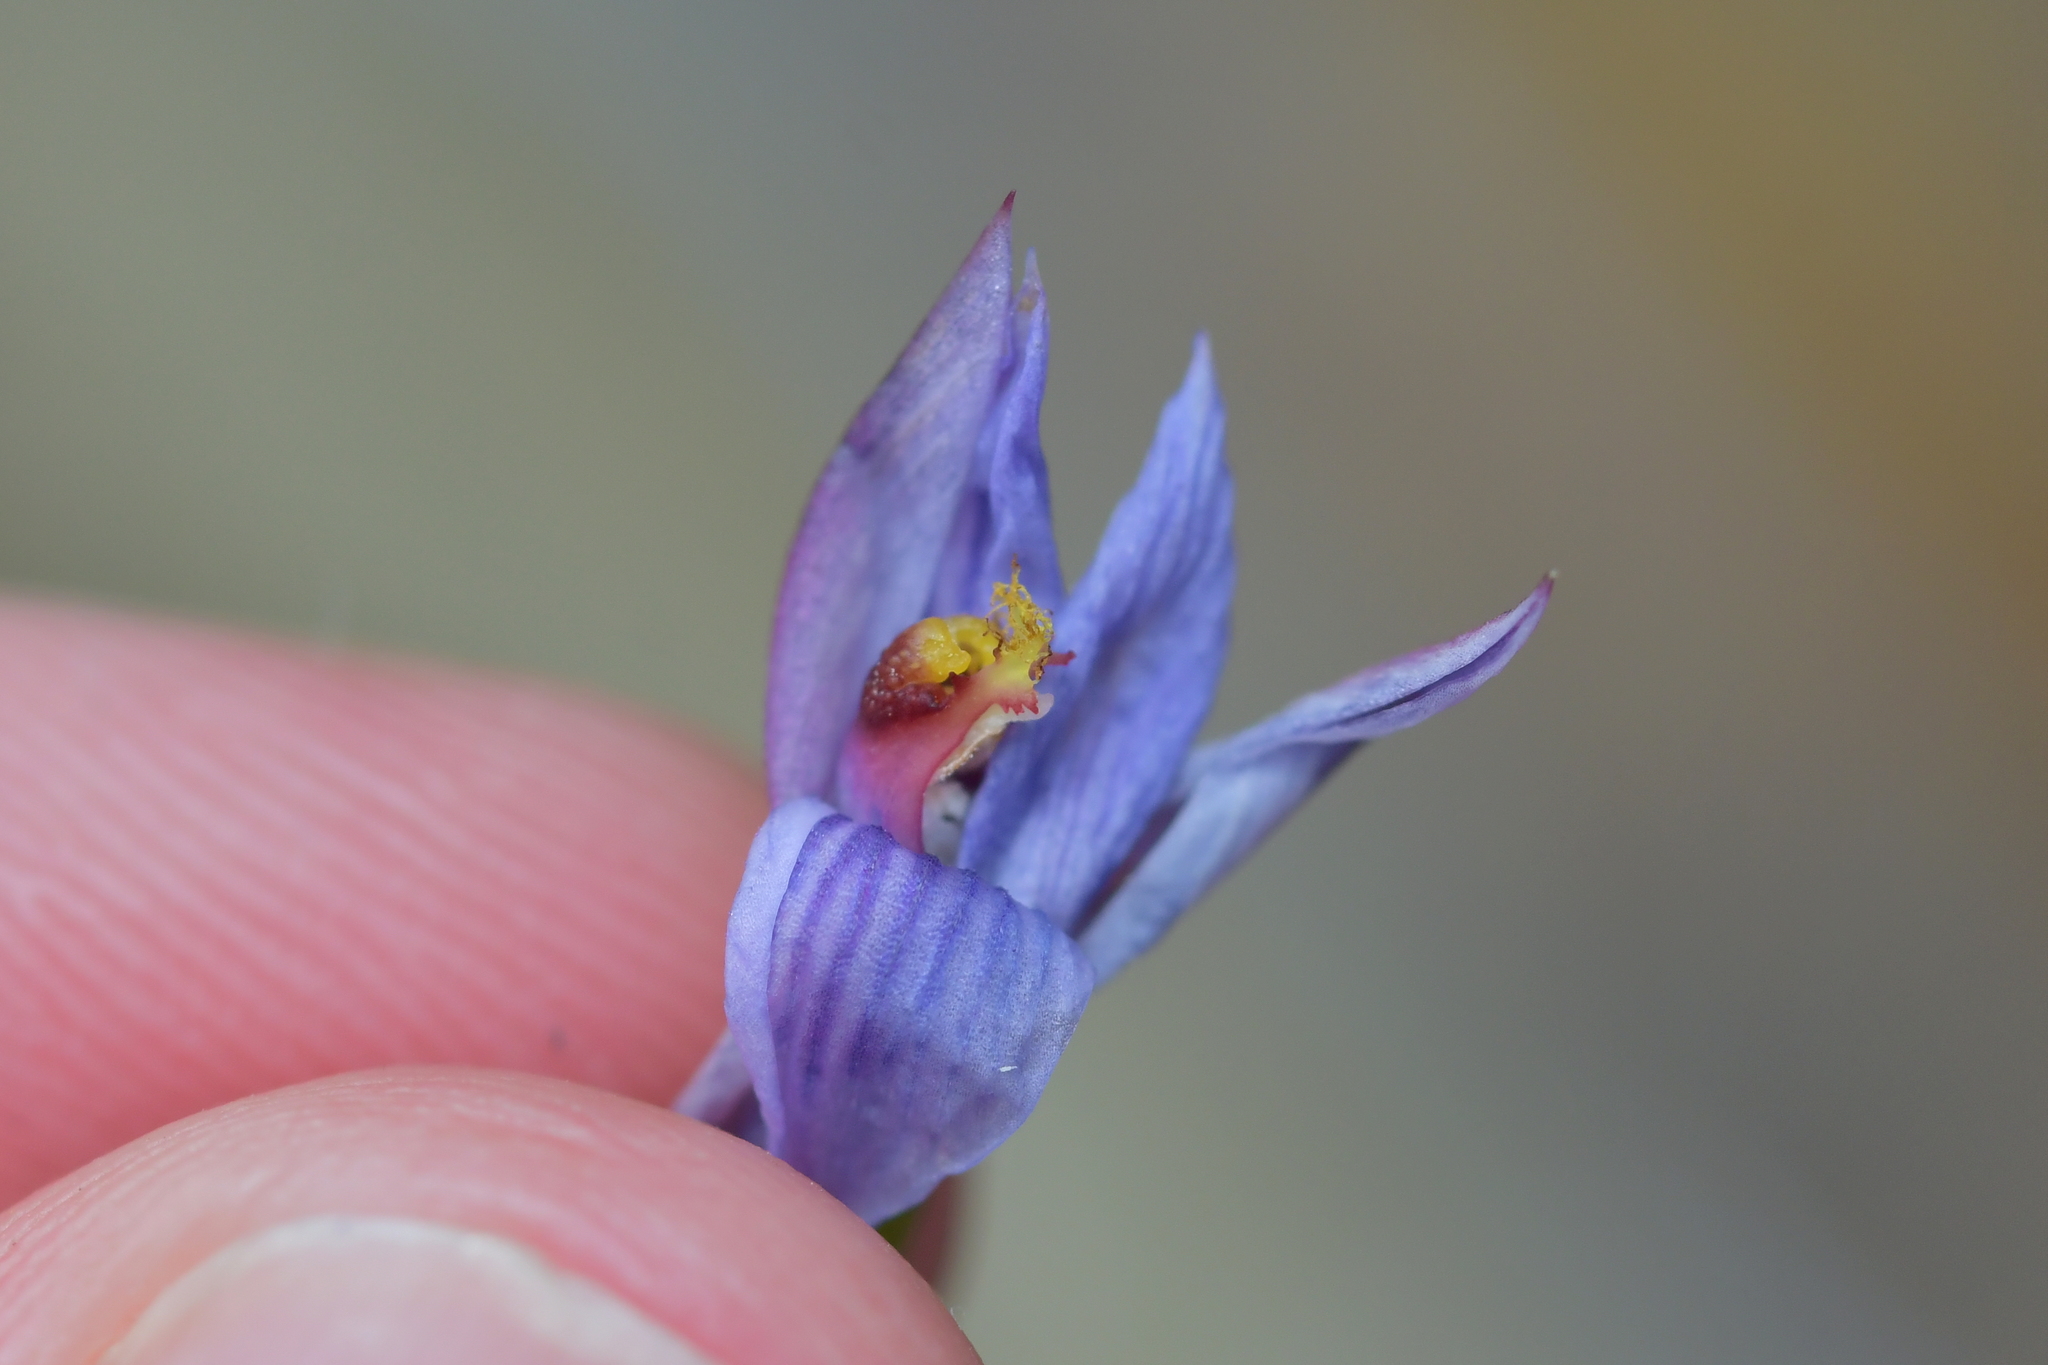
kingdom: Plantae
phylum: Tracheophyta
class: Liliopsida
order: Asparagales
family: Orchidaceae
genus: Thelymitra
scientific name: Thelymitra pulchella
